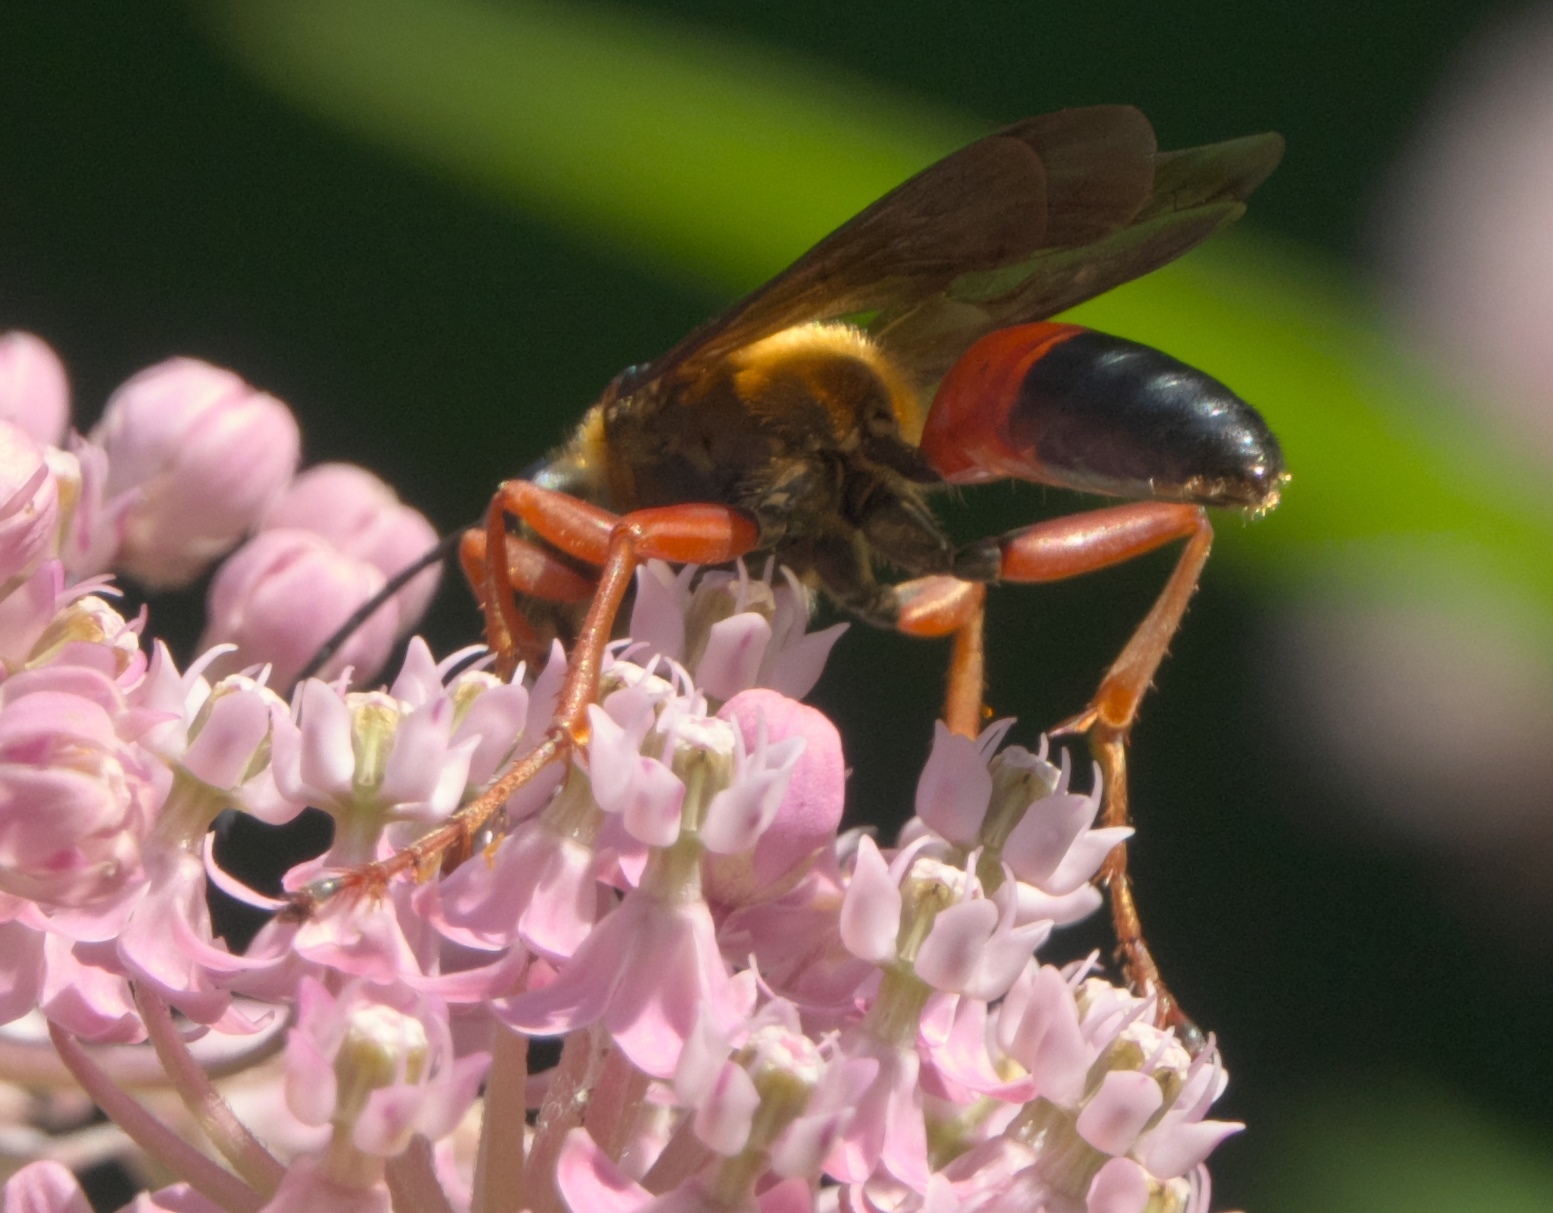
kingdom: Animalia
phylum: Arthropoda
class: Insecta
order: Hymenoptera
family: Sphecidae
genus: Sphex
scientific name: Sphex ichneumoneus
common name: Great golden digger wasp
